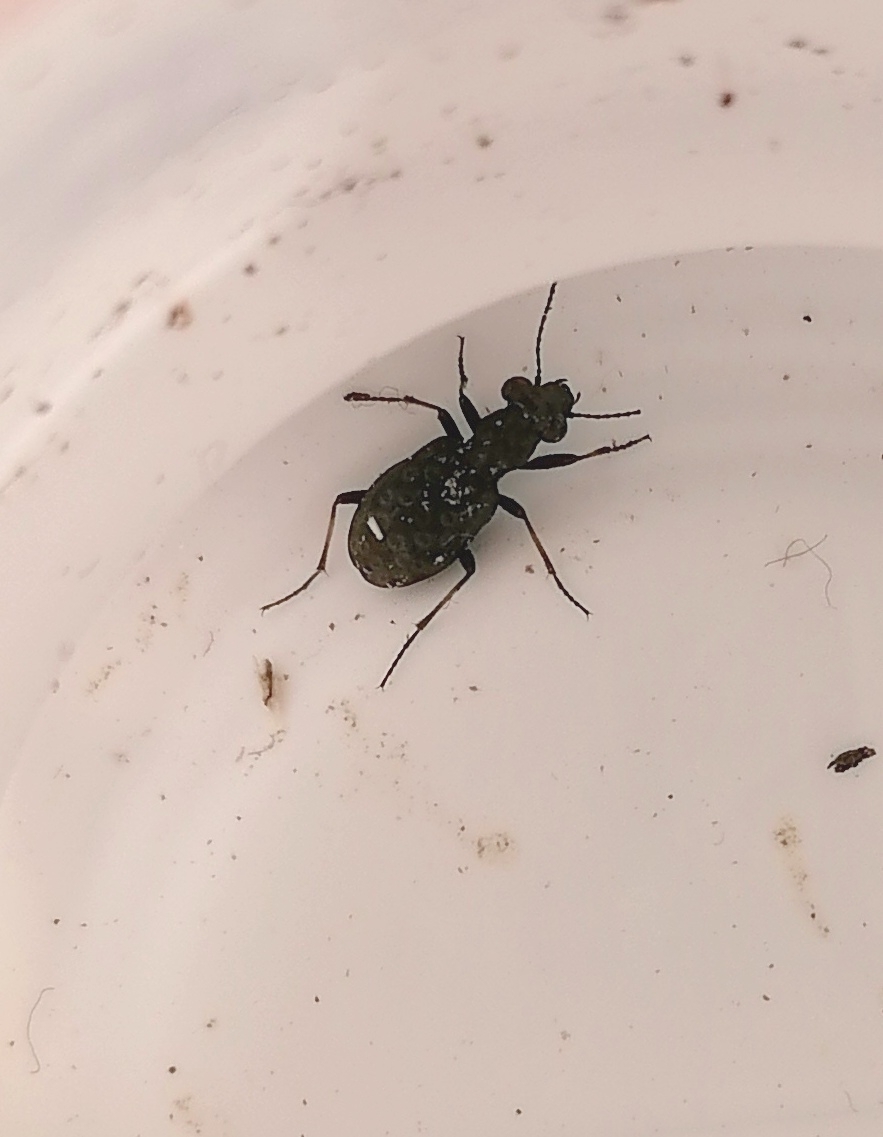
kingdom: Animalia
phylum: Arthropoda
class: Insecta
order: Coleoptera
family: Carabidae
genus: Elaphrus
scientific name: Elaphrus cupreus
